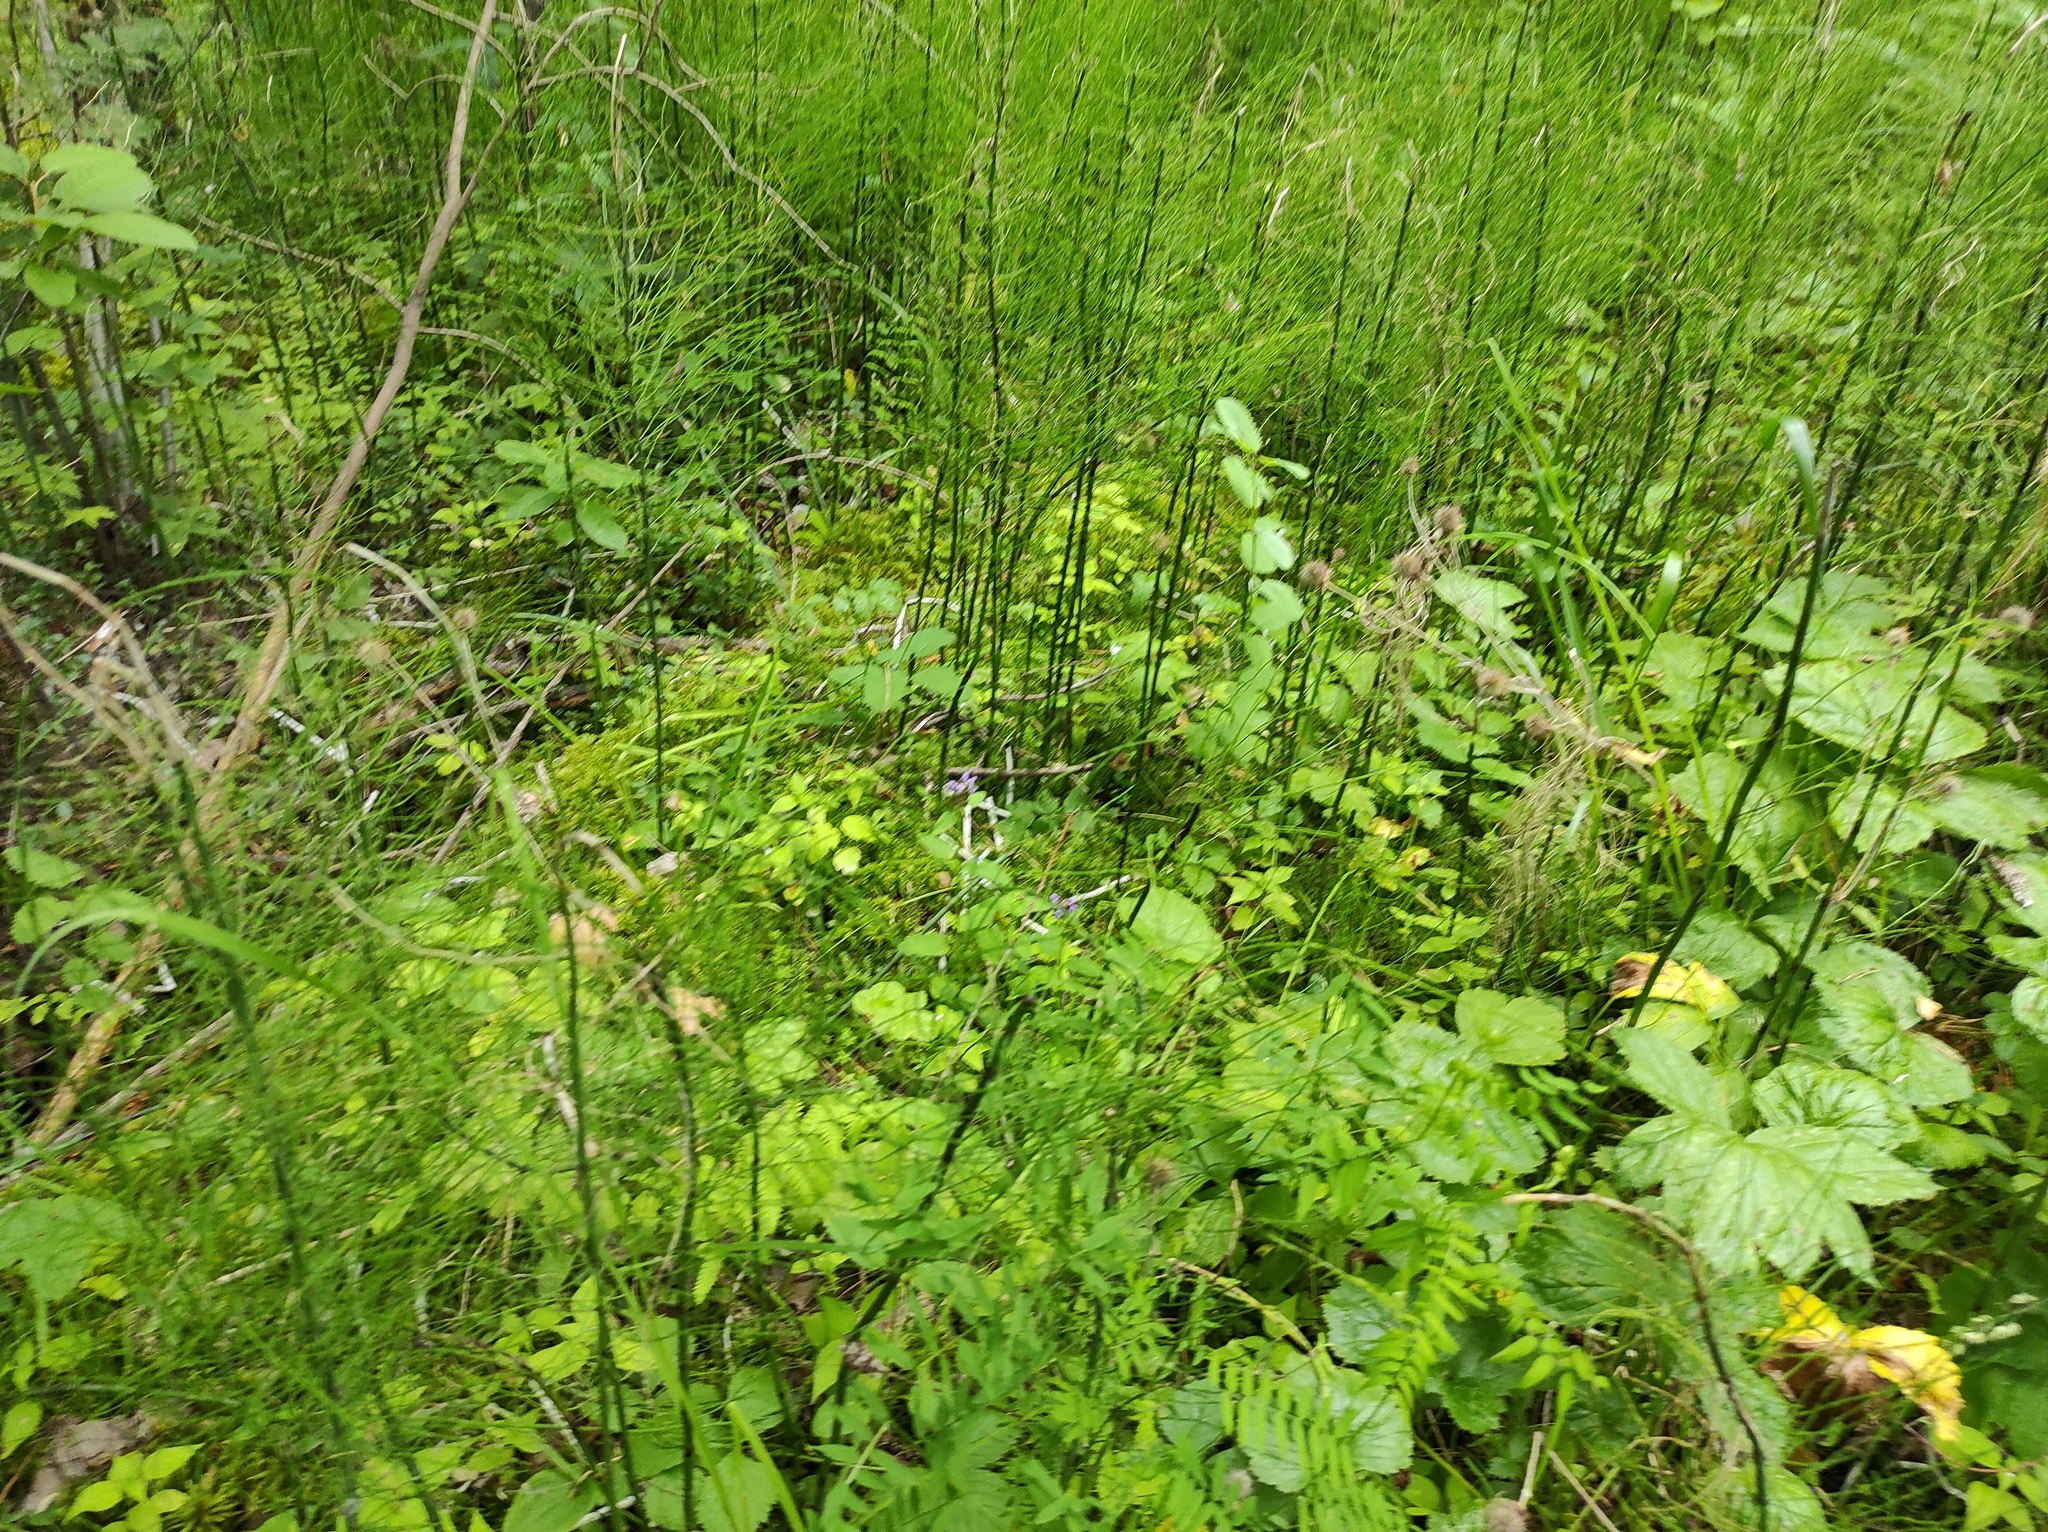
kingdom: Plantae
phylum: Tracheophyta
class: Polypodiopsida
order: Equisetales
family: Equisetaceae
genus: Equisetum
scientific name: Equisetum fluviatile
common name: Water horsetail
